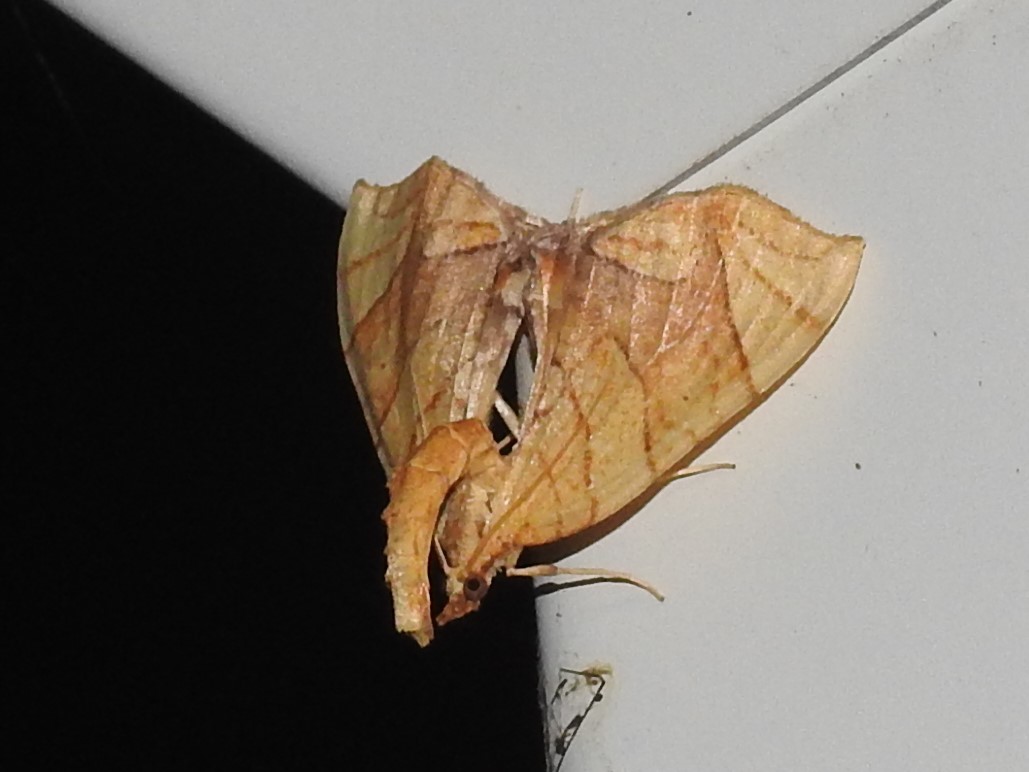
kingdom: Animalia
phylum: Arthropoda
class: Insecta
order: Lepidoptera
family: Geometridae
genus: Eulithis
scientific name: Eulithis
